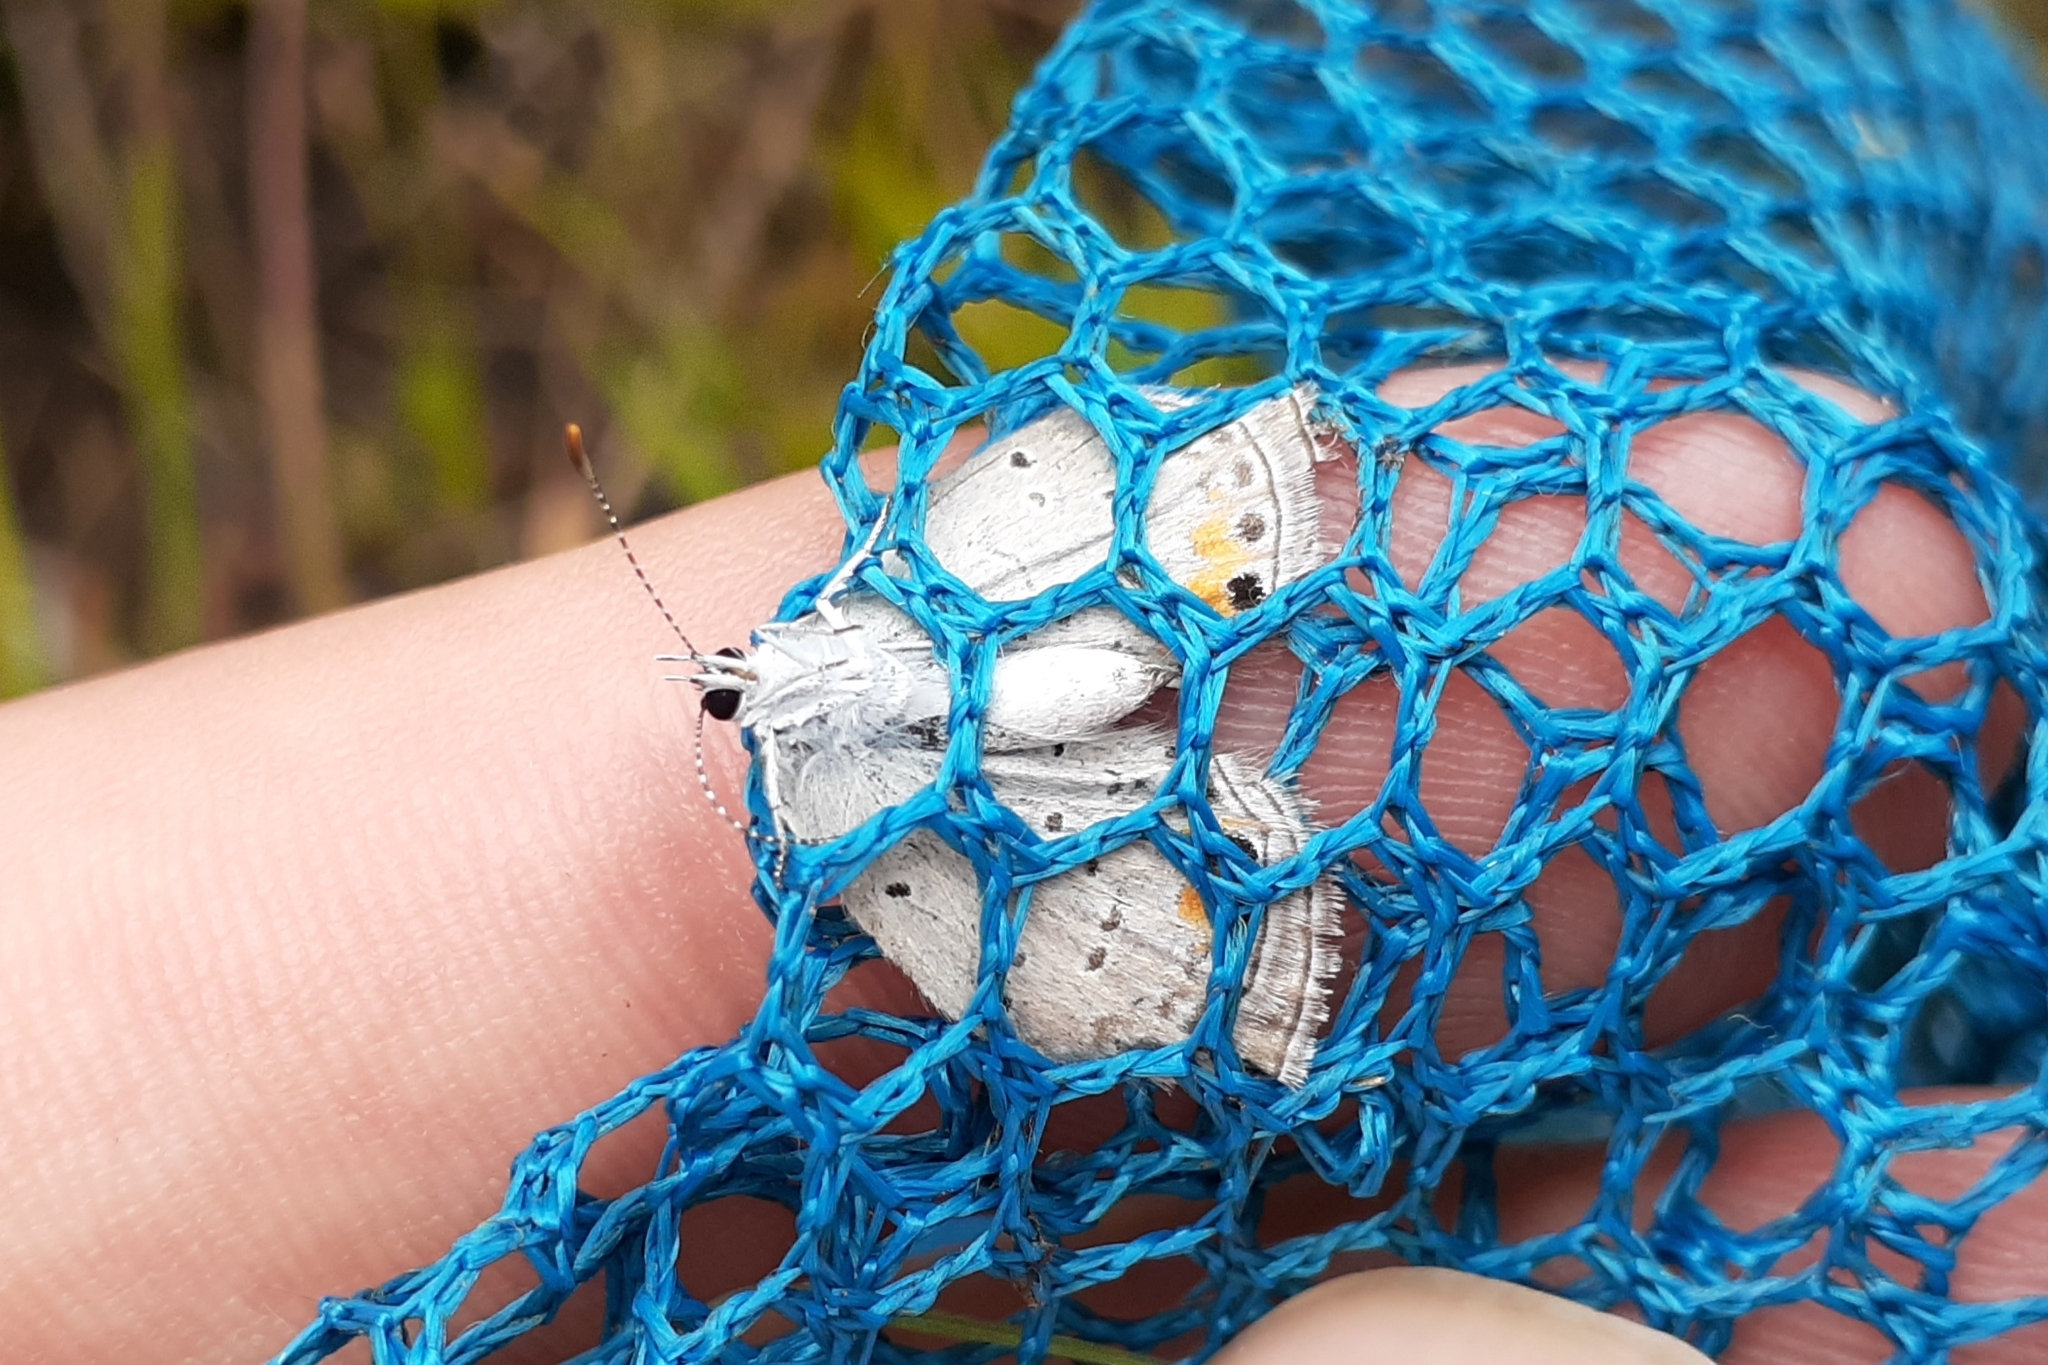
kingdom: Animalia
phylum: Arthropoda
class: Insecta
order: Lepidoptera
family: Lycaenidae
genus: Elkalyce
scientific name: Elkalyce comyntas
